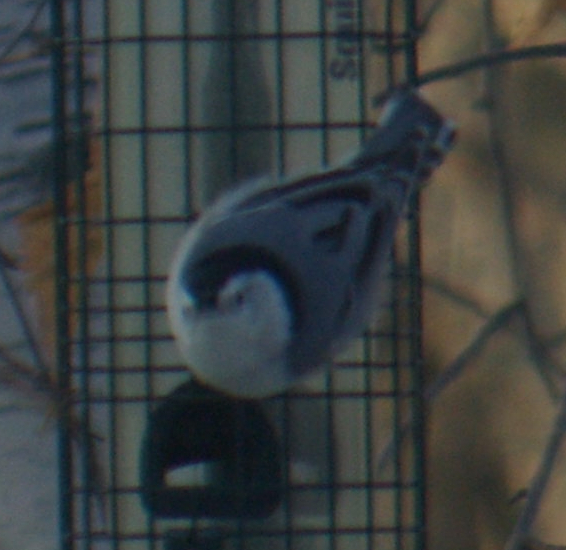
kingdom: Animalia
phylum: Chordata
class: Aves
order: Passeriformes
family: Sittidae
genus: Sitta
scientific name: Sitta carolinensis
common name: White-breasted nuthatch
